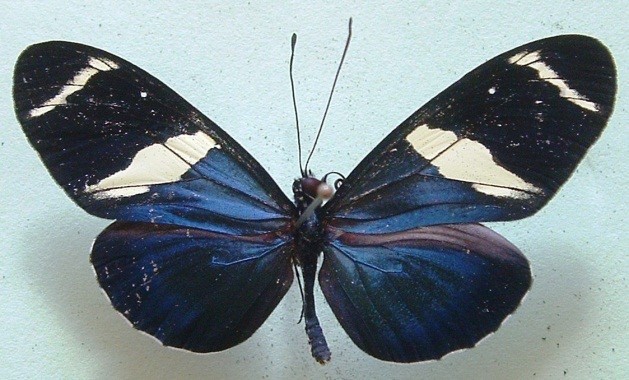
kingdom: Animalia
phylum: Arthropoda
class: Insecta
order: Lepidoptera
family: Nymphalidae
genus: Heliconius
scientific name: Heliconius sara
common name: Sara longwing
